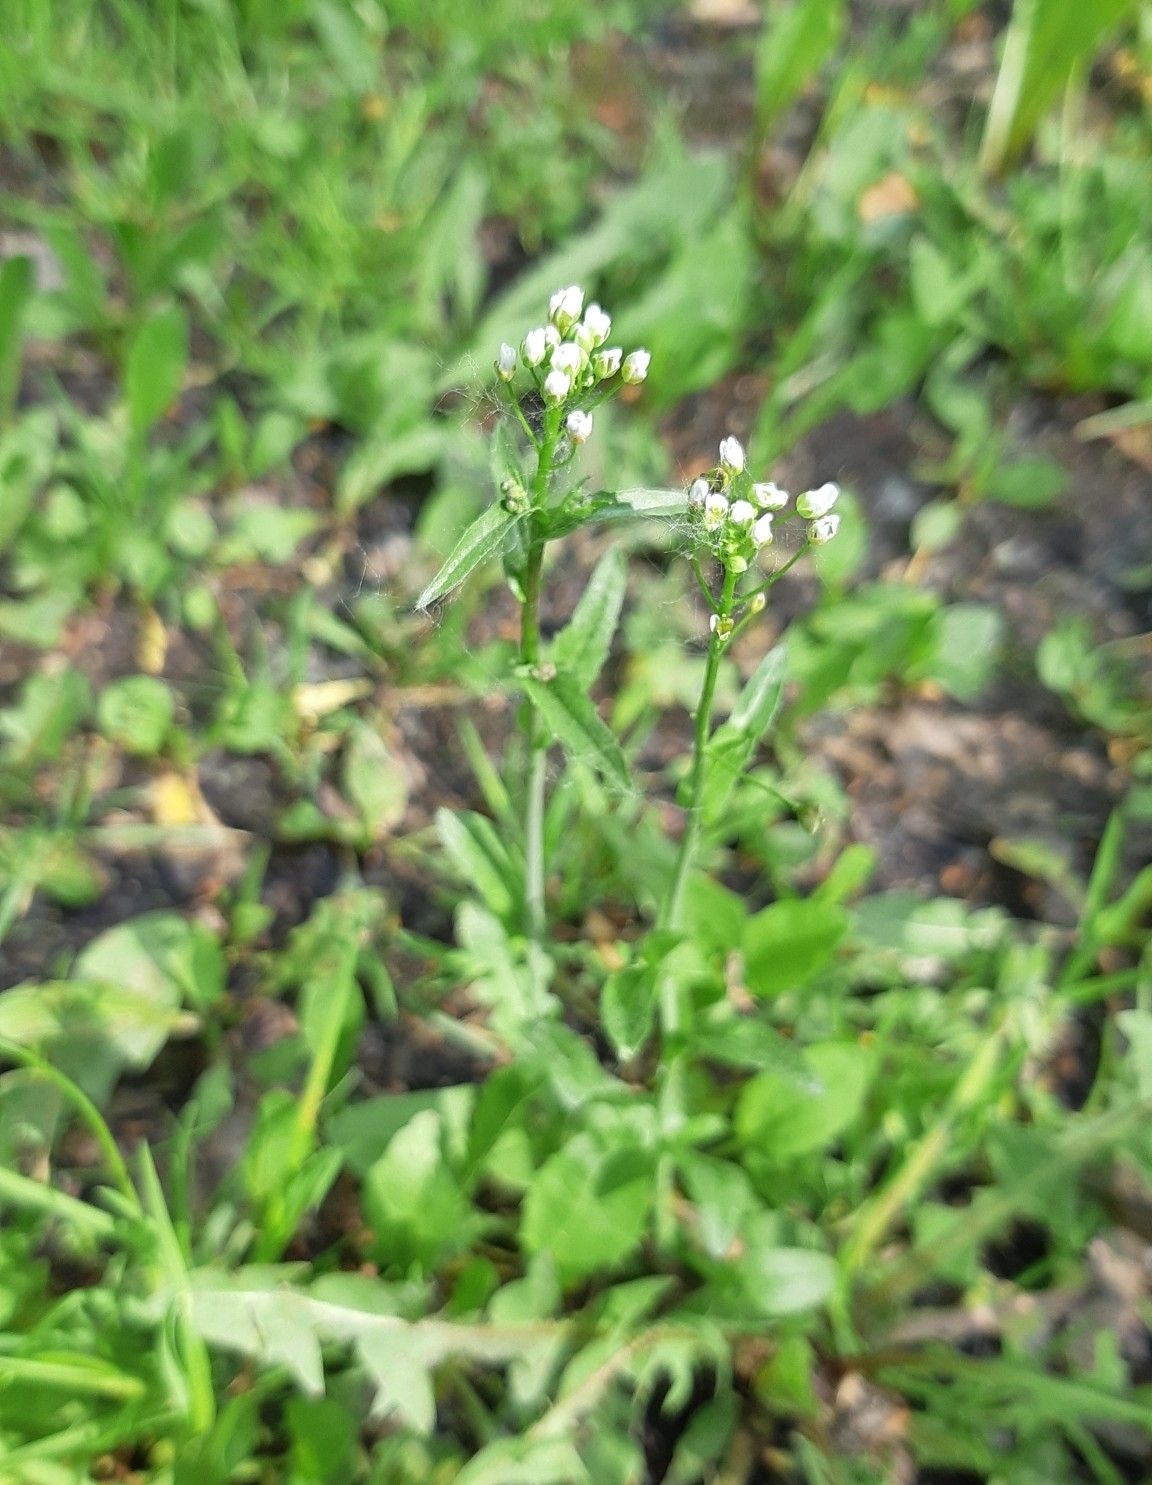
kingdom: Plantae
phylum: Tracheophyta
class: Magnoliopsida
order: Brassicales
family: Brassicaceae
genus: Capsella
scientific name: Capsella bursa-pastoris
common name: Shepherd's purse
